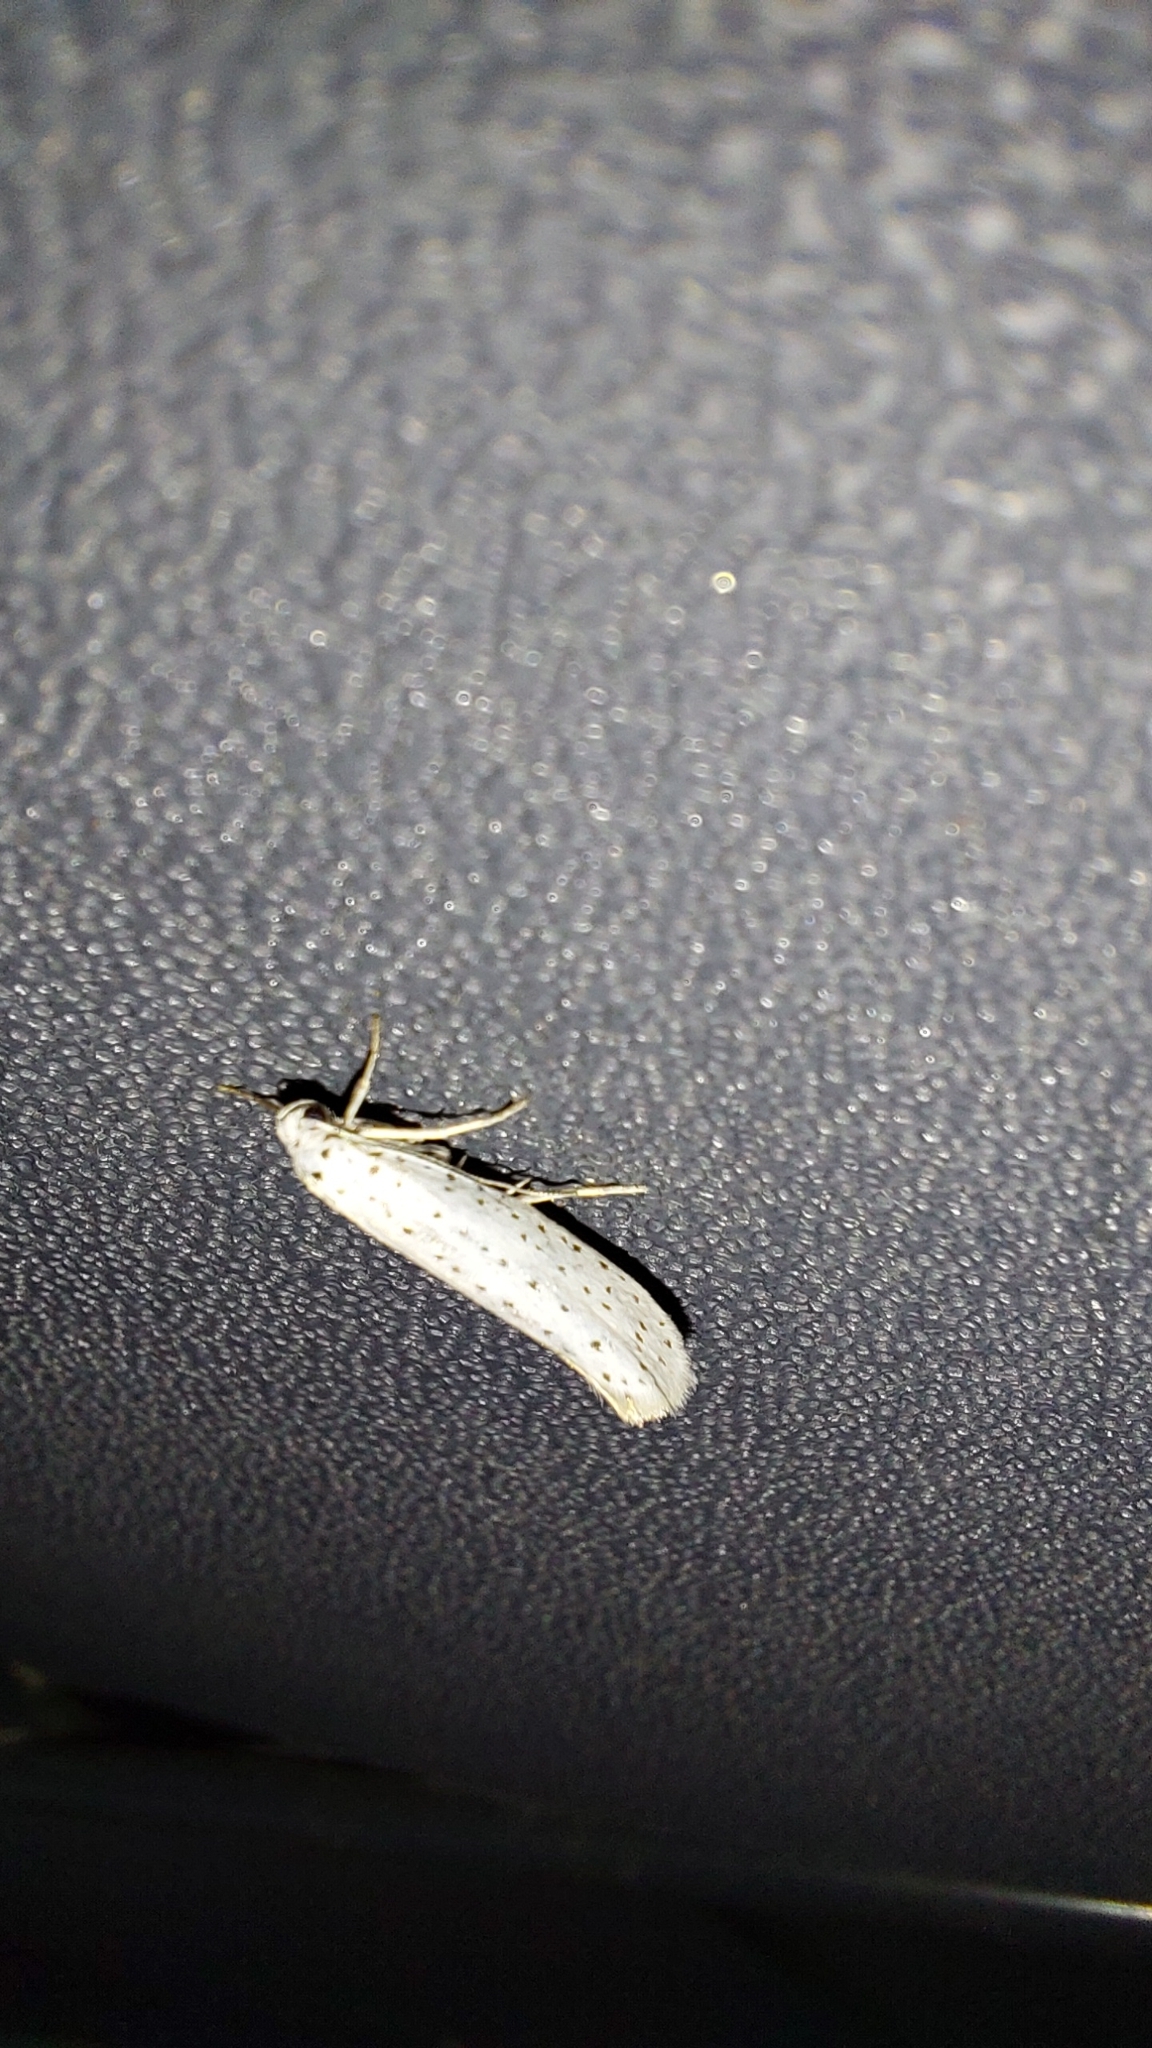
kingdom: Animalia
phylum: Arthropoda
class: Insecta
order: Lepidoptera
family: Yponomeutidae
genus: Yponomeuta
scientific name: Yponomeuta evonymella
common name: Bird-cherry ermine
